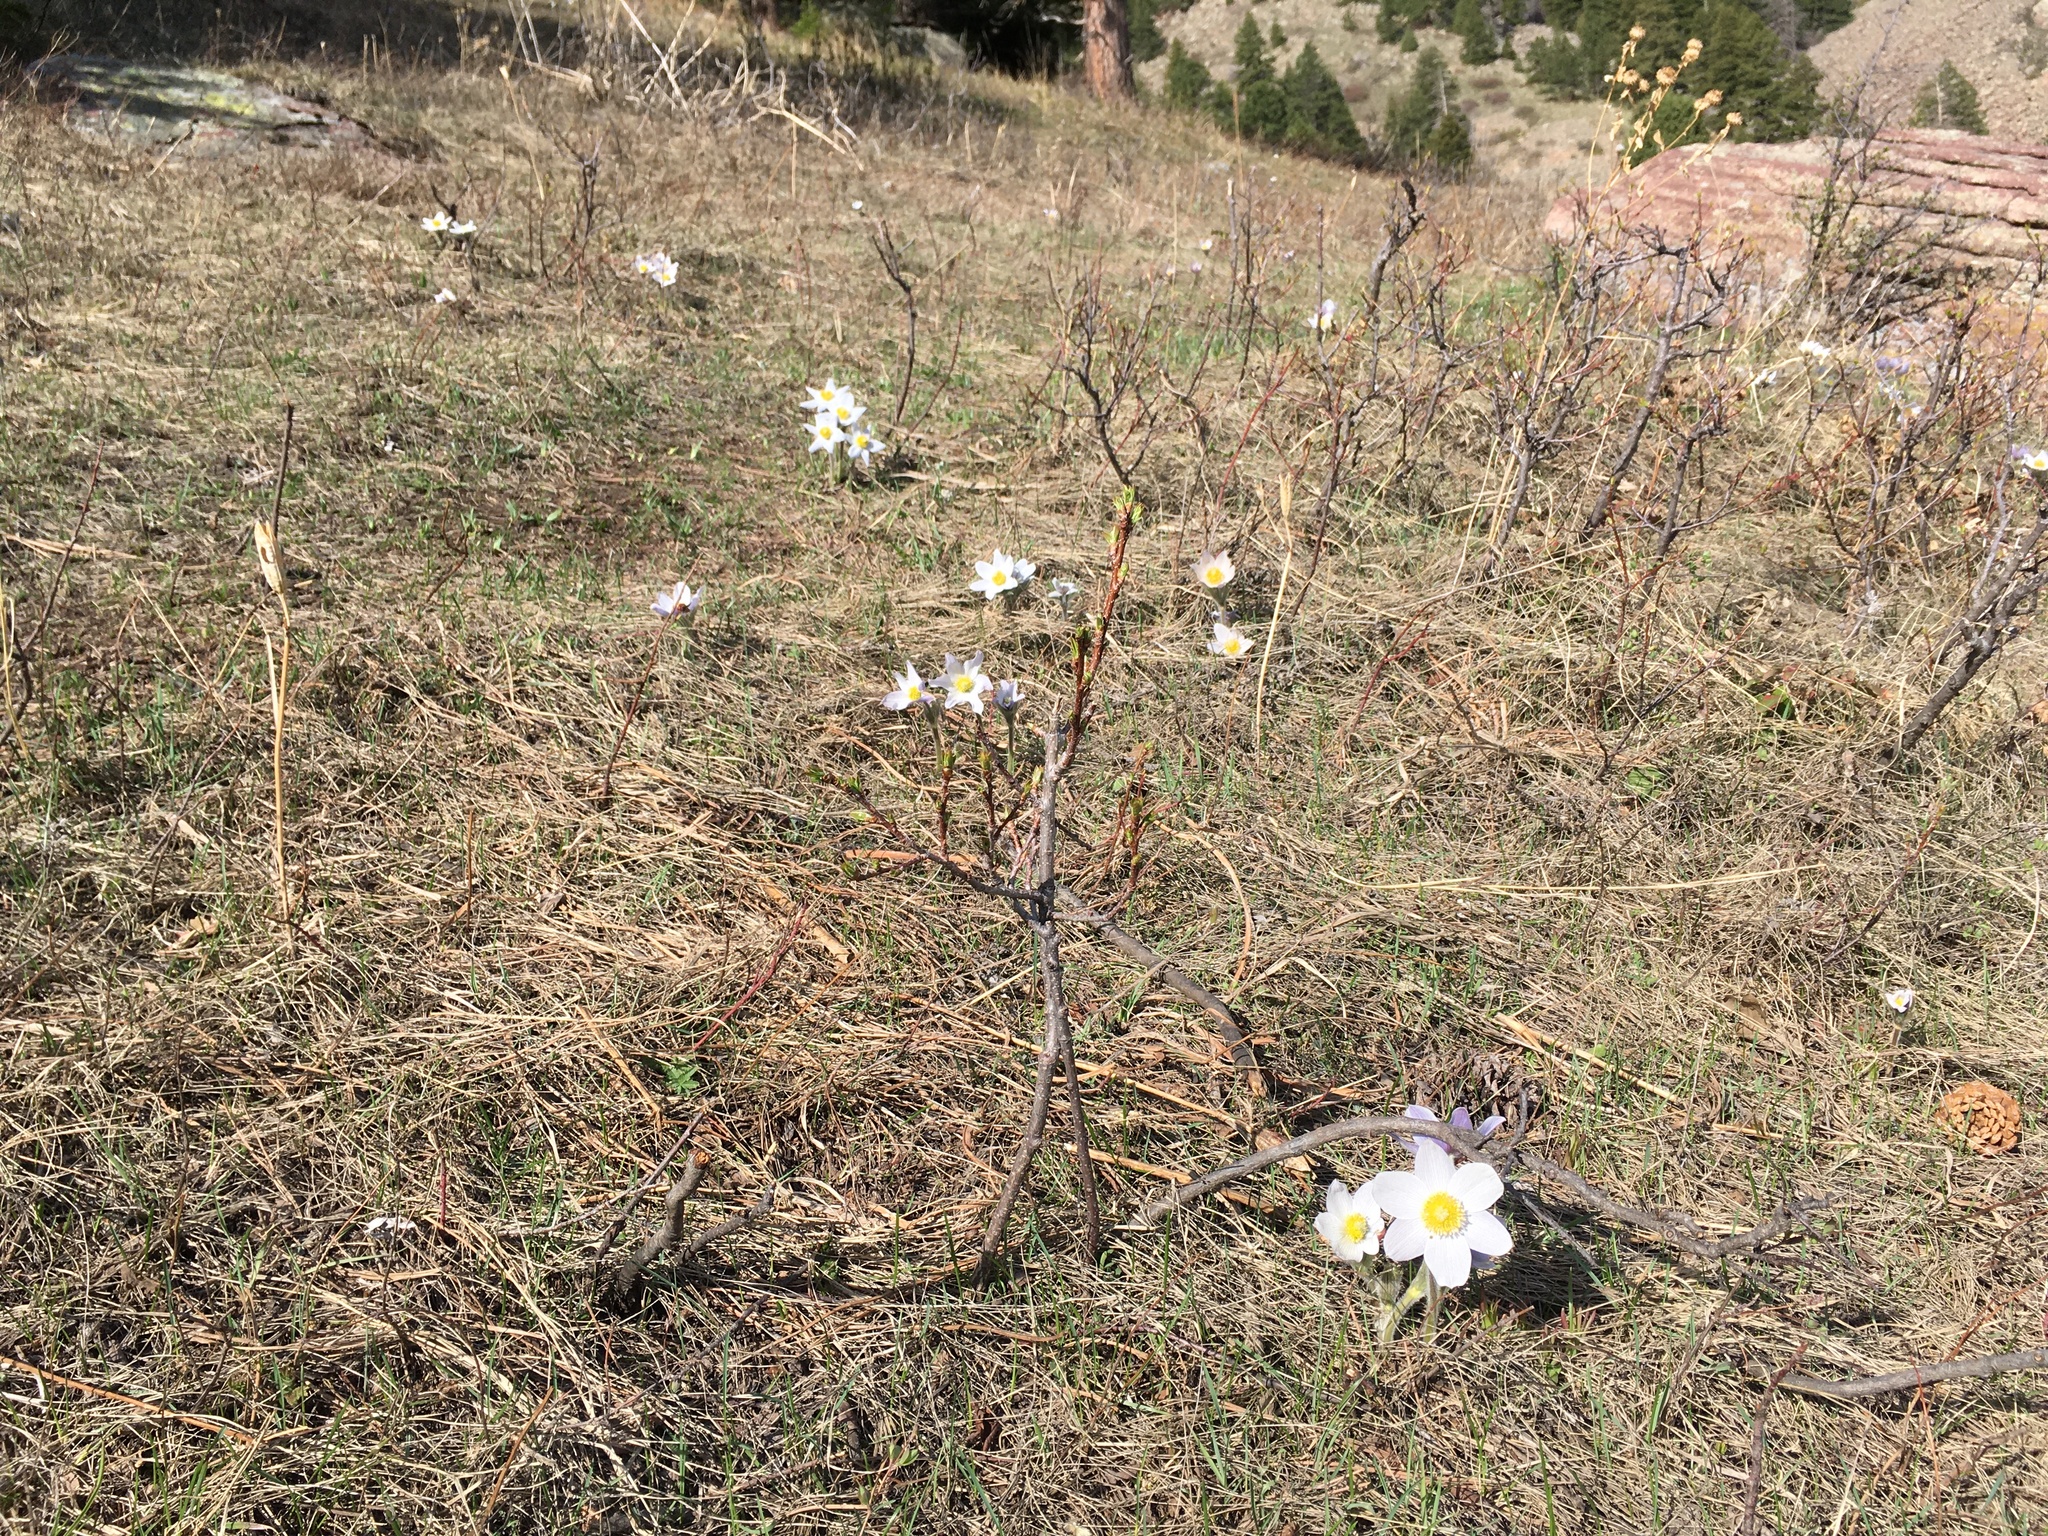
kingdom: Plantae
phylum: Tracheophyta
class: Magnoliopsida
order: Ranunculales
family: Ranunculaceae
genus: Pulsatilla
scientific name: Pulsatilla nuttalliana
